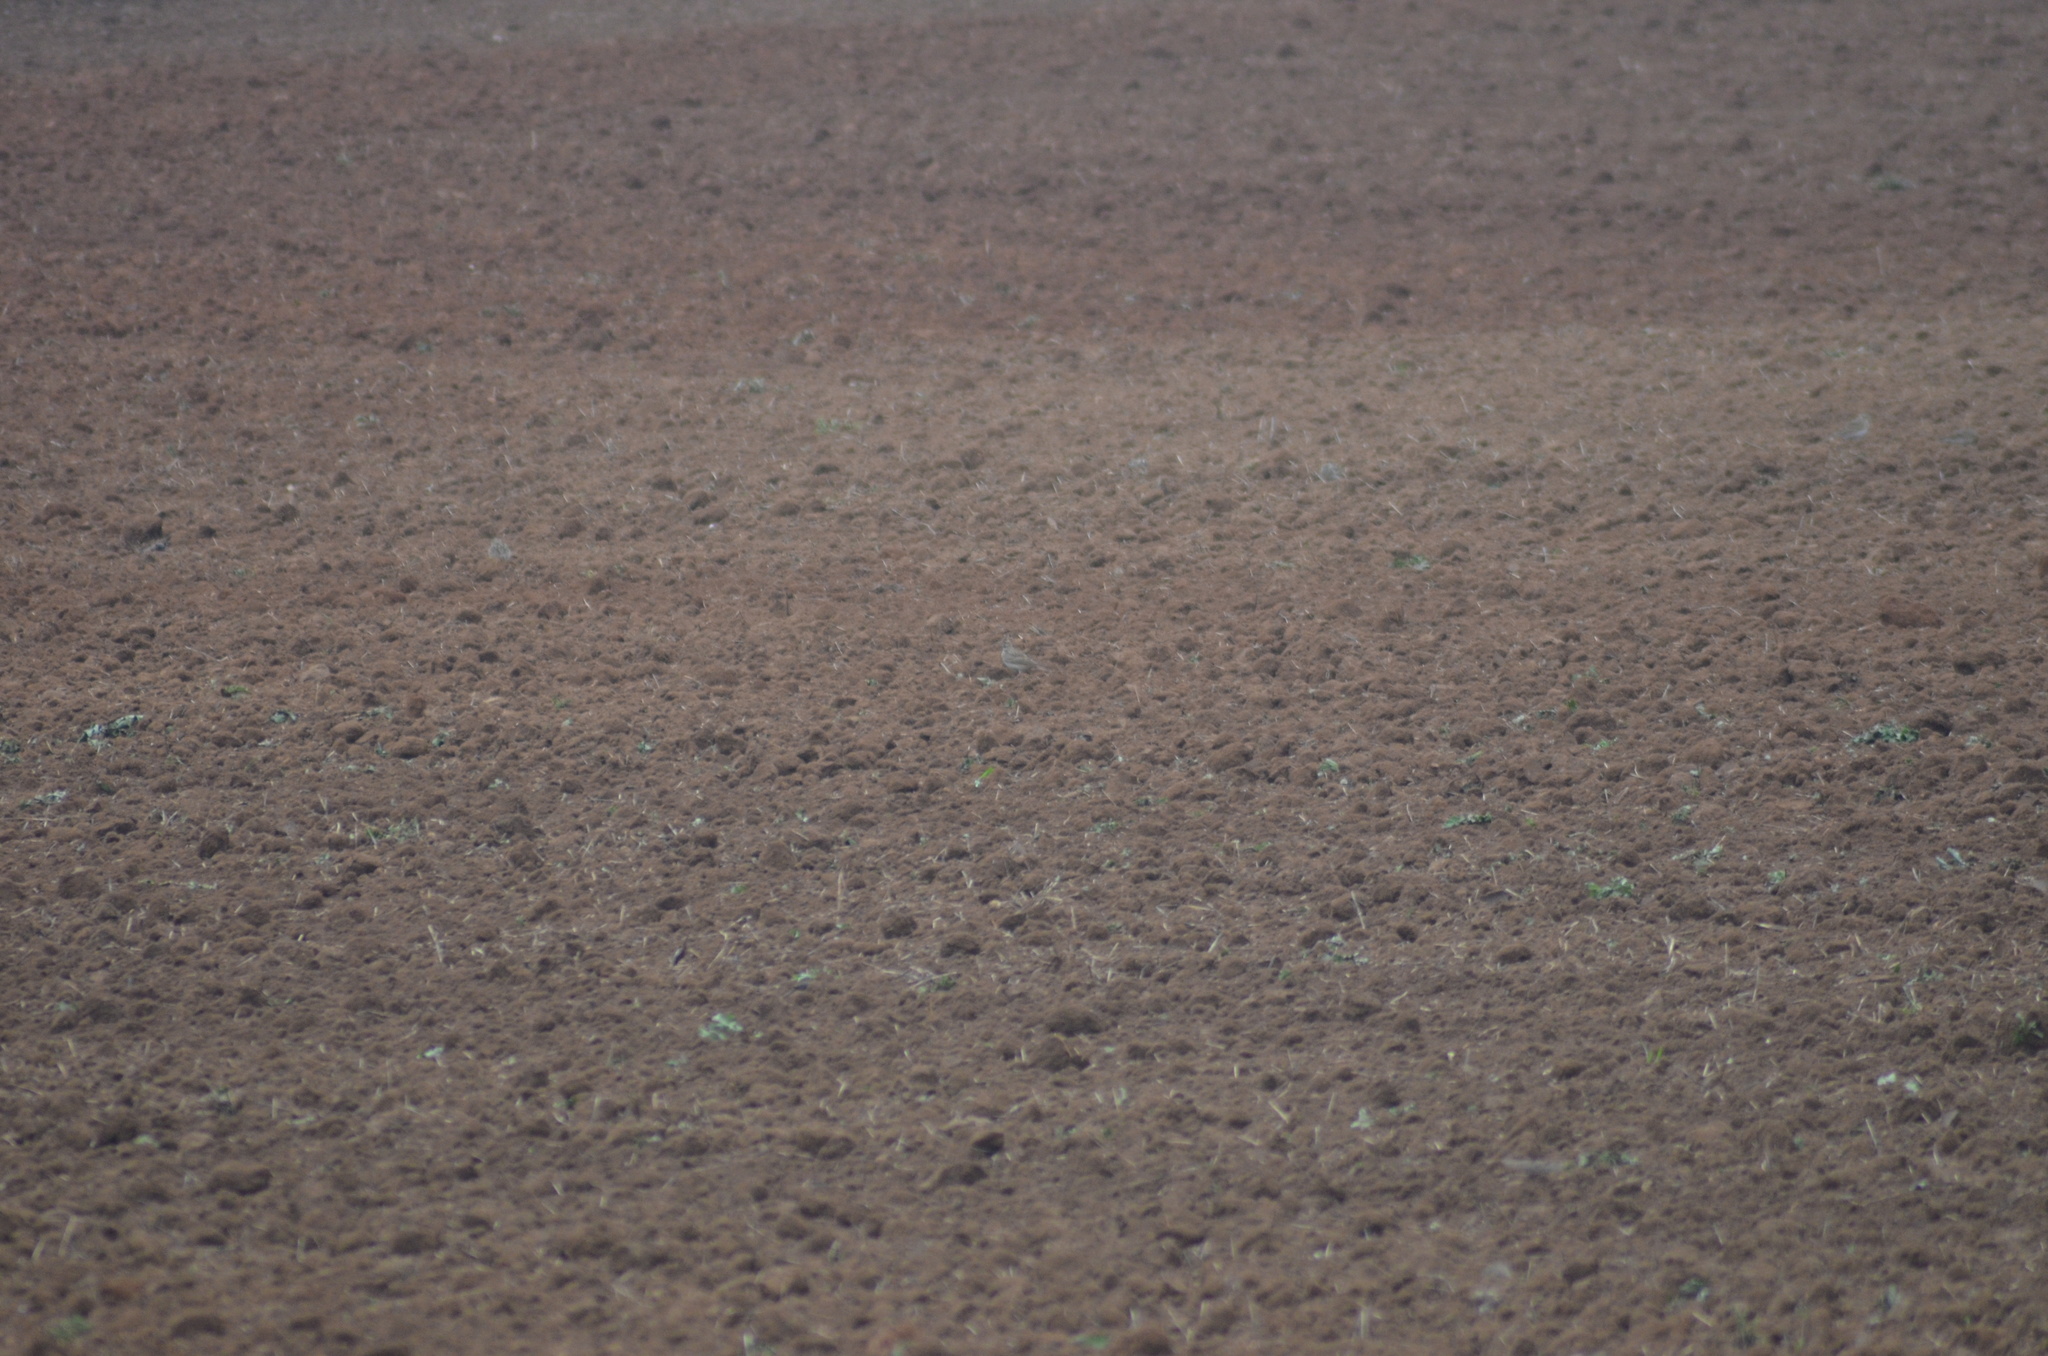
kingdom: Animalia
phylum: Chordata
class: Aves
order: Passeriformes
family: Alaudidae
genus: Galerida
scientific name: Galerida cristata
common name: Crested lark
